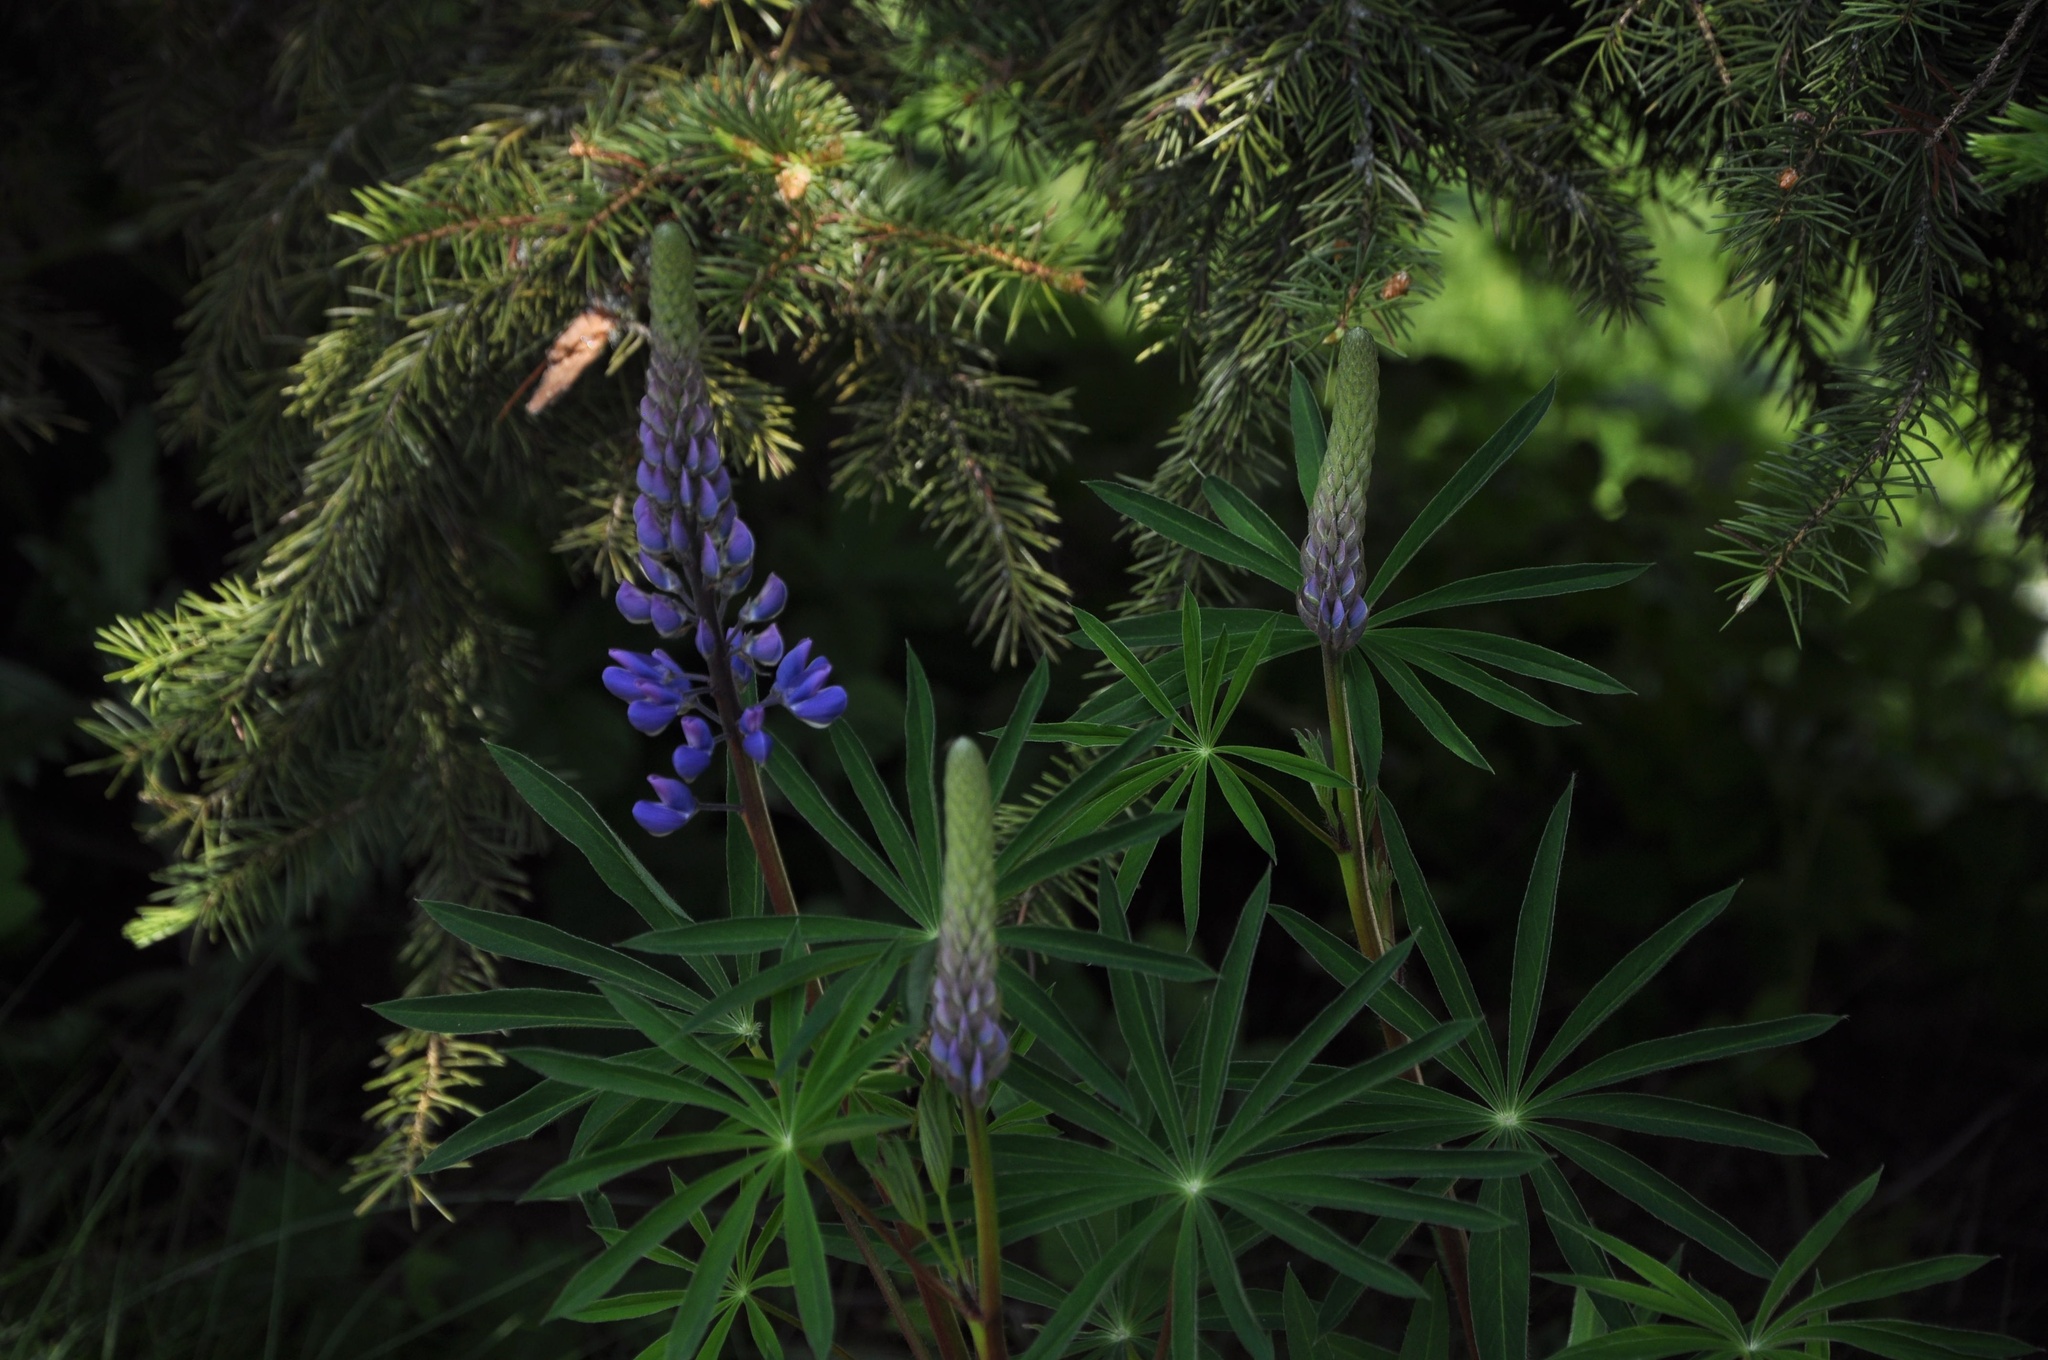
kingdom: Plantae
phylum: Tracheophyta
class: Magnoliopsida
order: Fabales
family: Fabaceae
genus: Lupinus
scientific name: Lupinus polyphyllus
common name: Garden lupin
